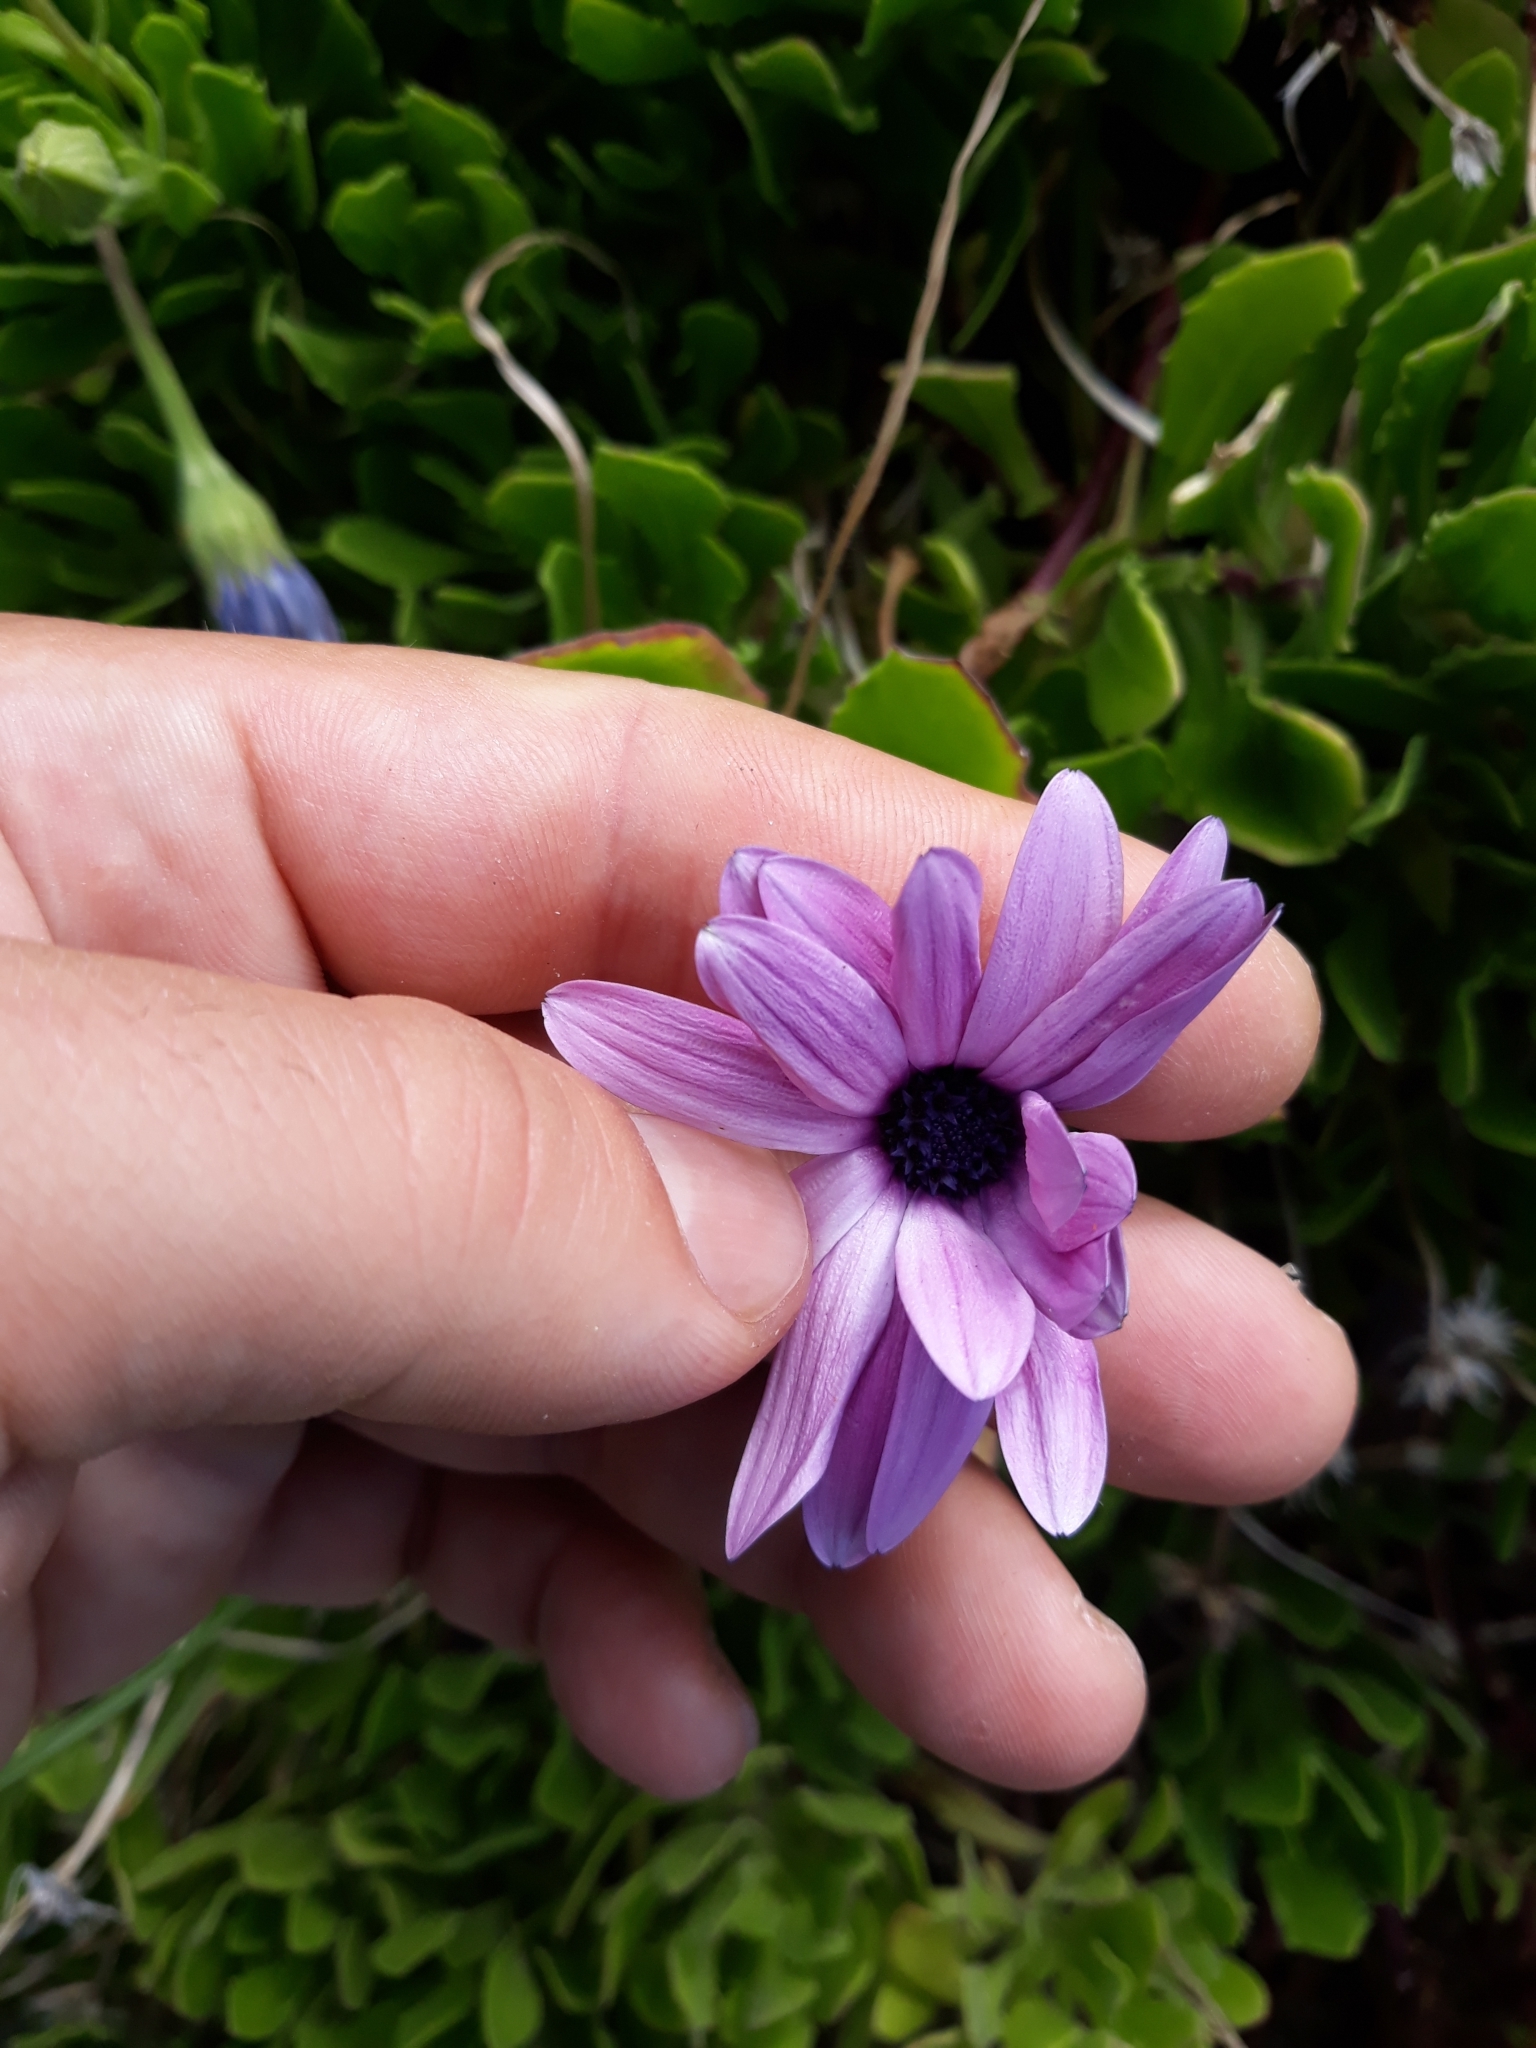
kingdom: Plantae
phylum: Tracheophyta
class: Magnoliopsida
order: Asterales
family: Asteraceae
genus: Dimorphotheca
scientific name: Dimorphotheca fruticosa
